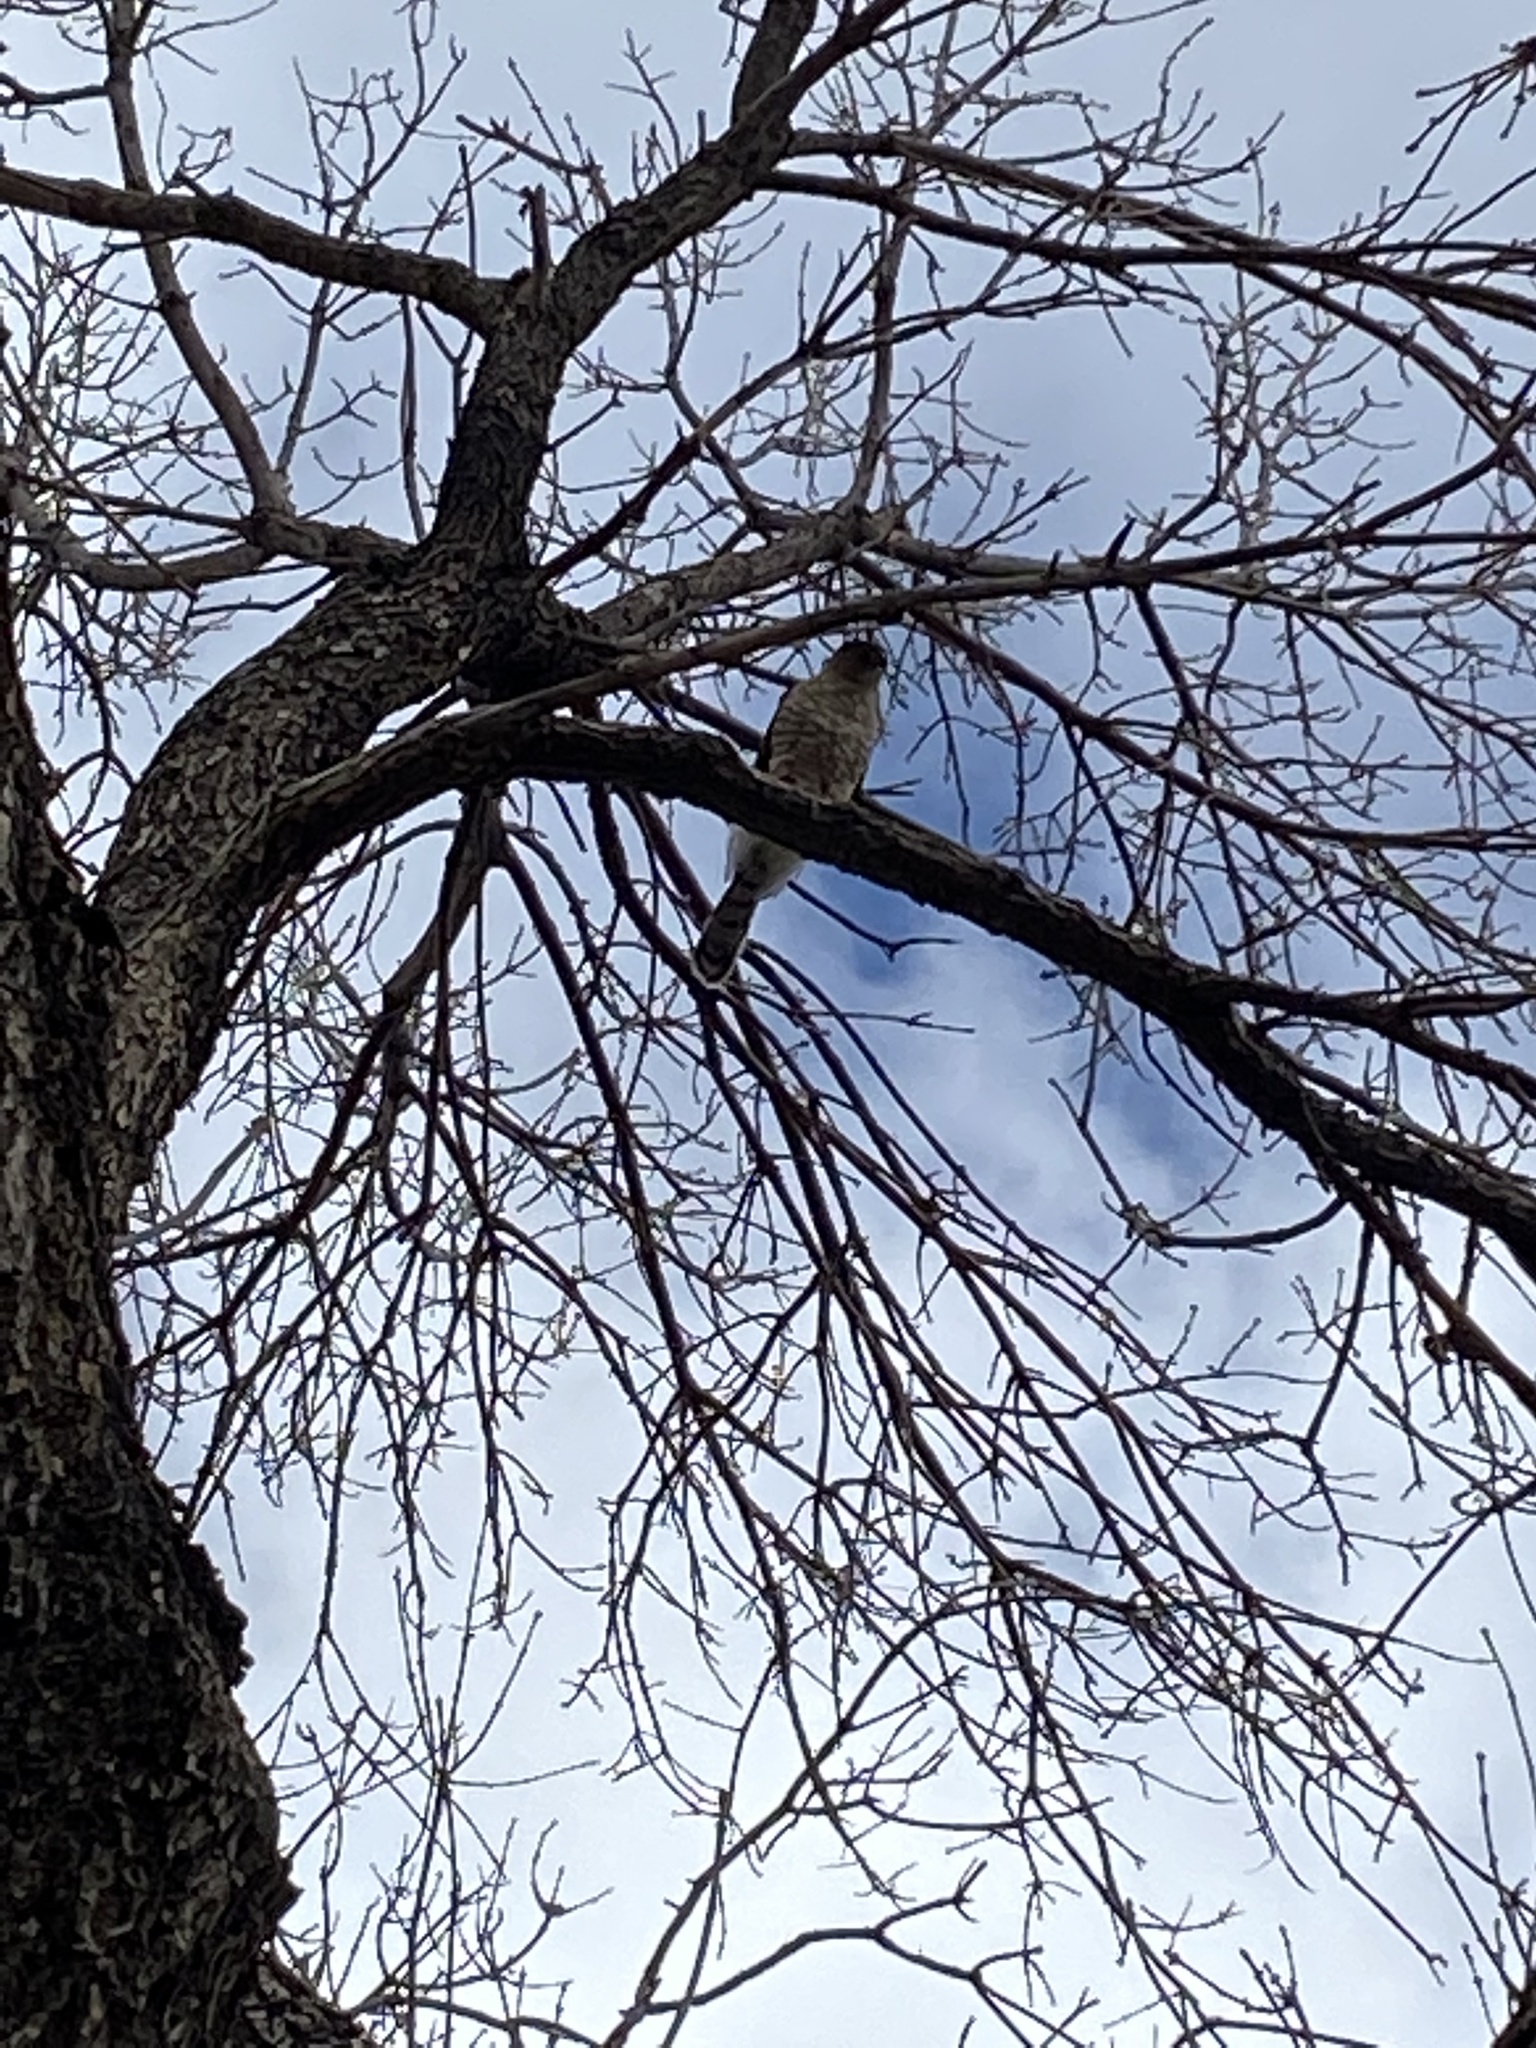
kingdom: Animalia
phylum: Chordata
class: Aves
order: Accipitriformes
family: Accipitridae
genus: Accipiter
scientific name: Accipiter cooperii
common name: Cooper's hawk
